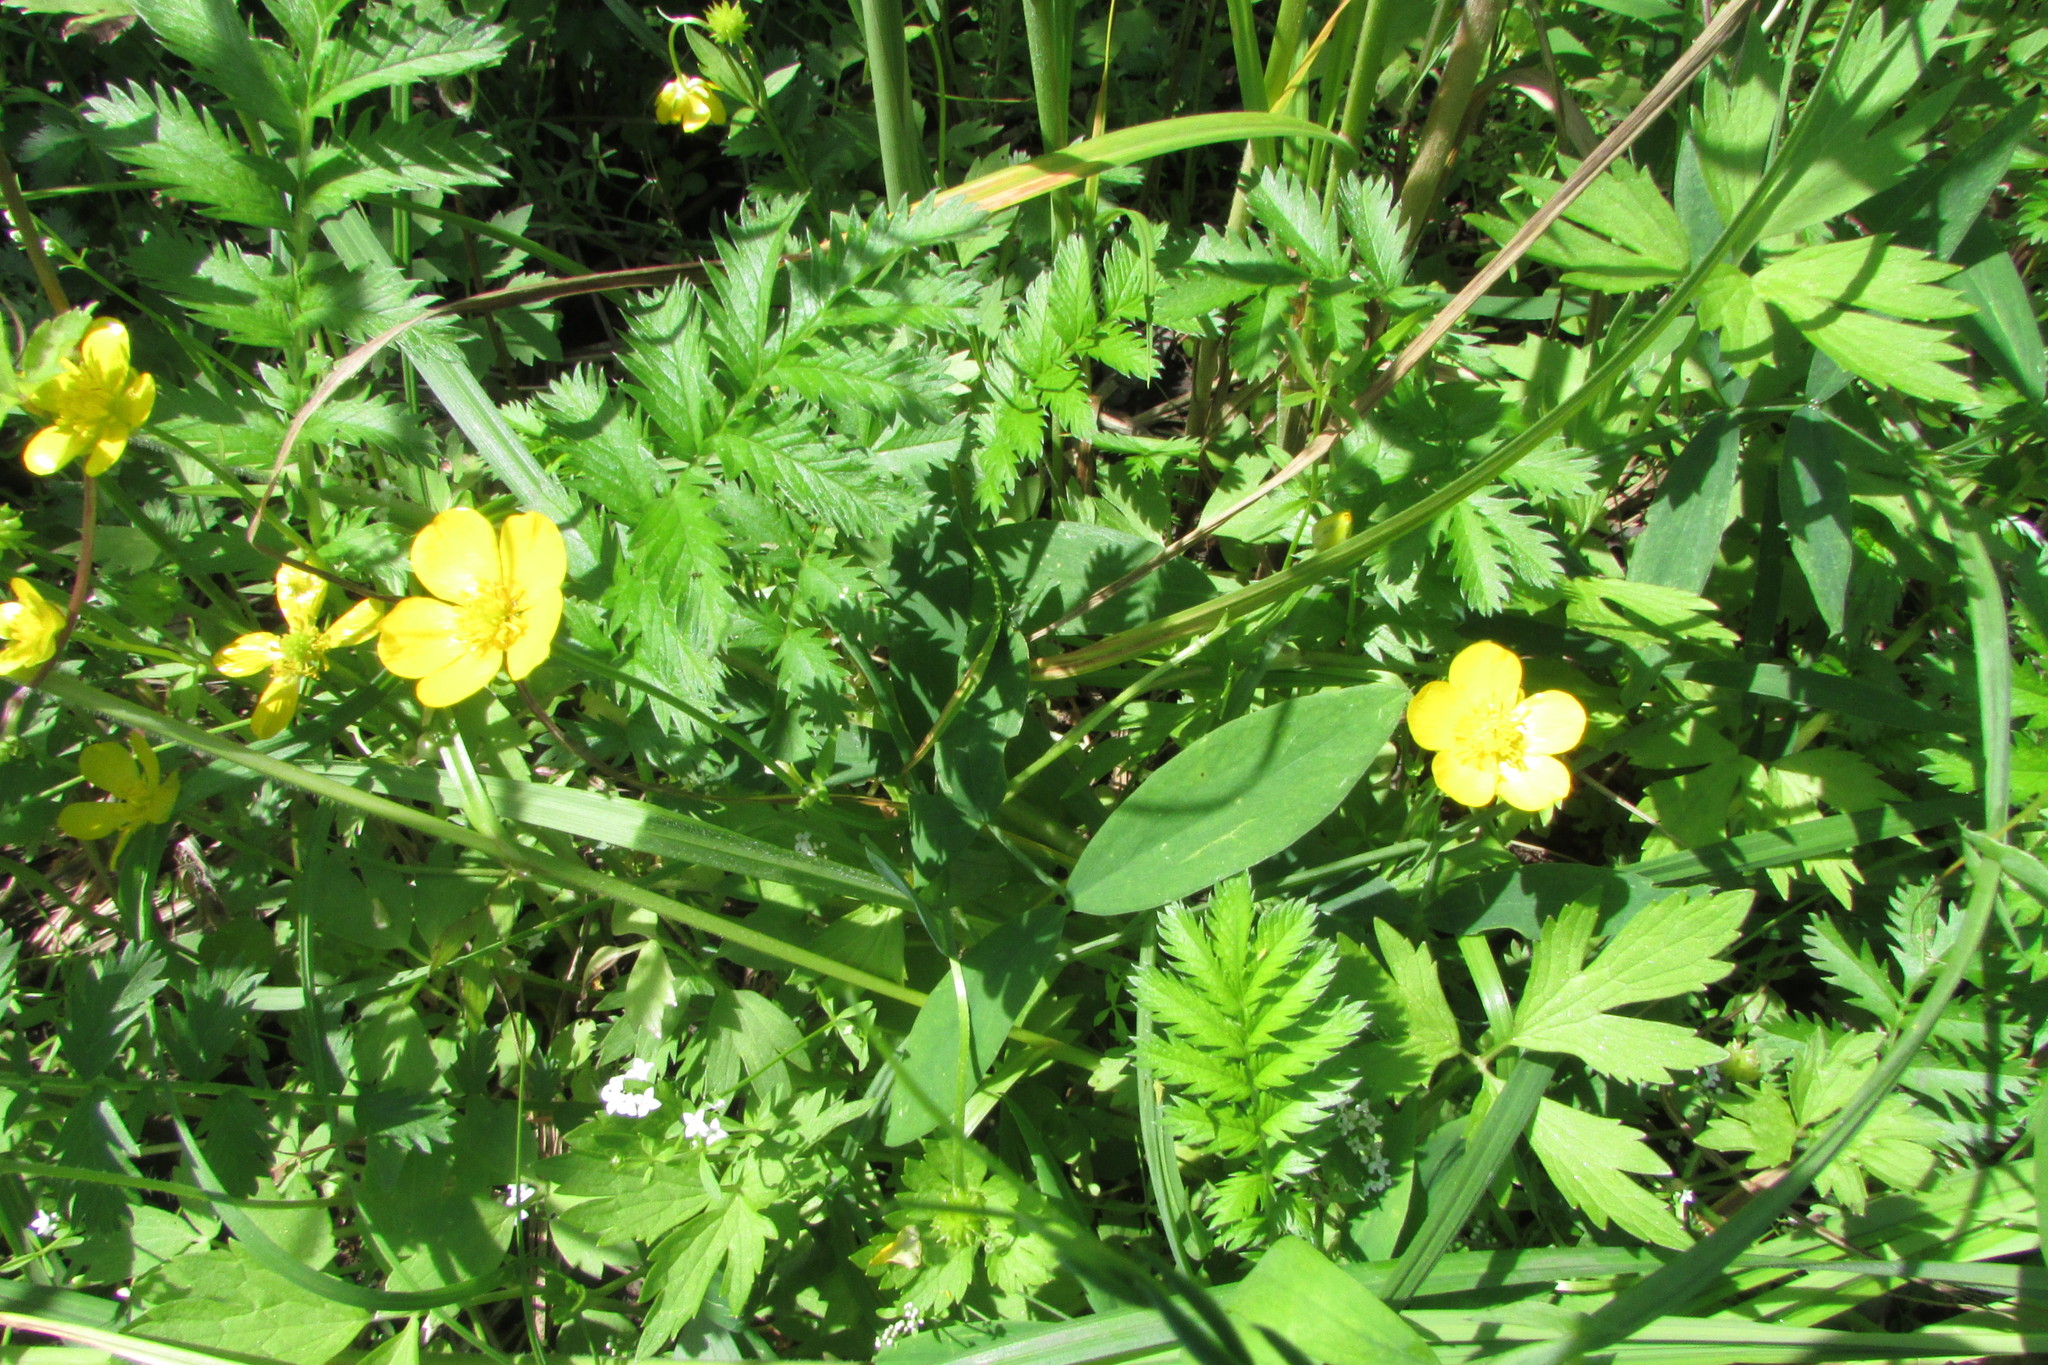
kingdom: Plantae
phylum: Tracheophyta
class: Magnoliopsida
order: Rosales
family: Rosaceae
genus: Argentina
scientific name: Argentina anserina
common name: Common silverweed
